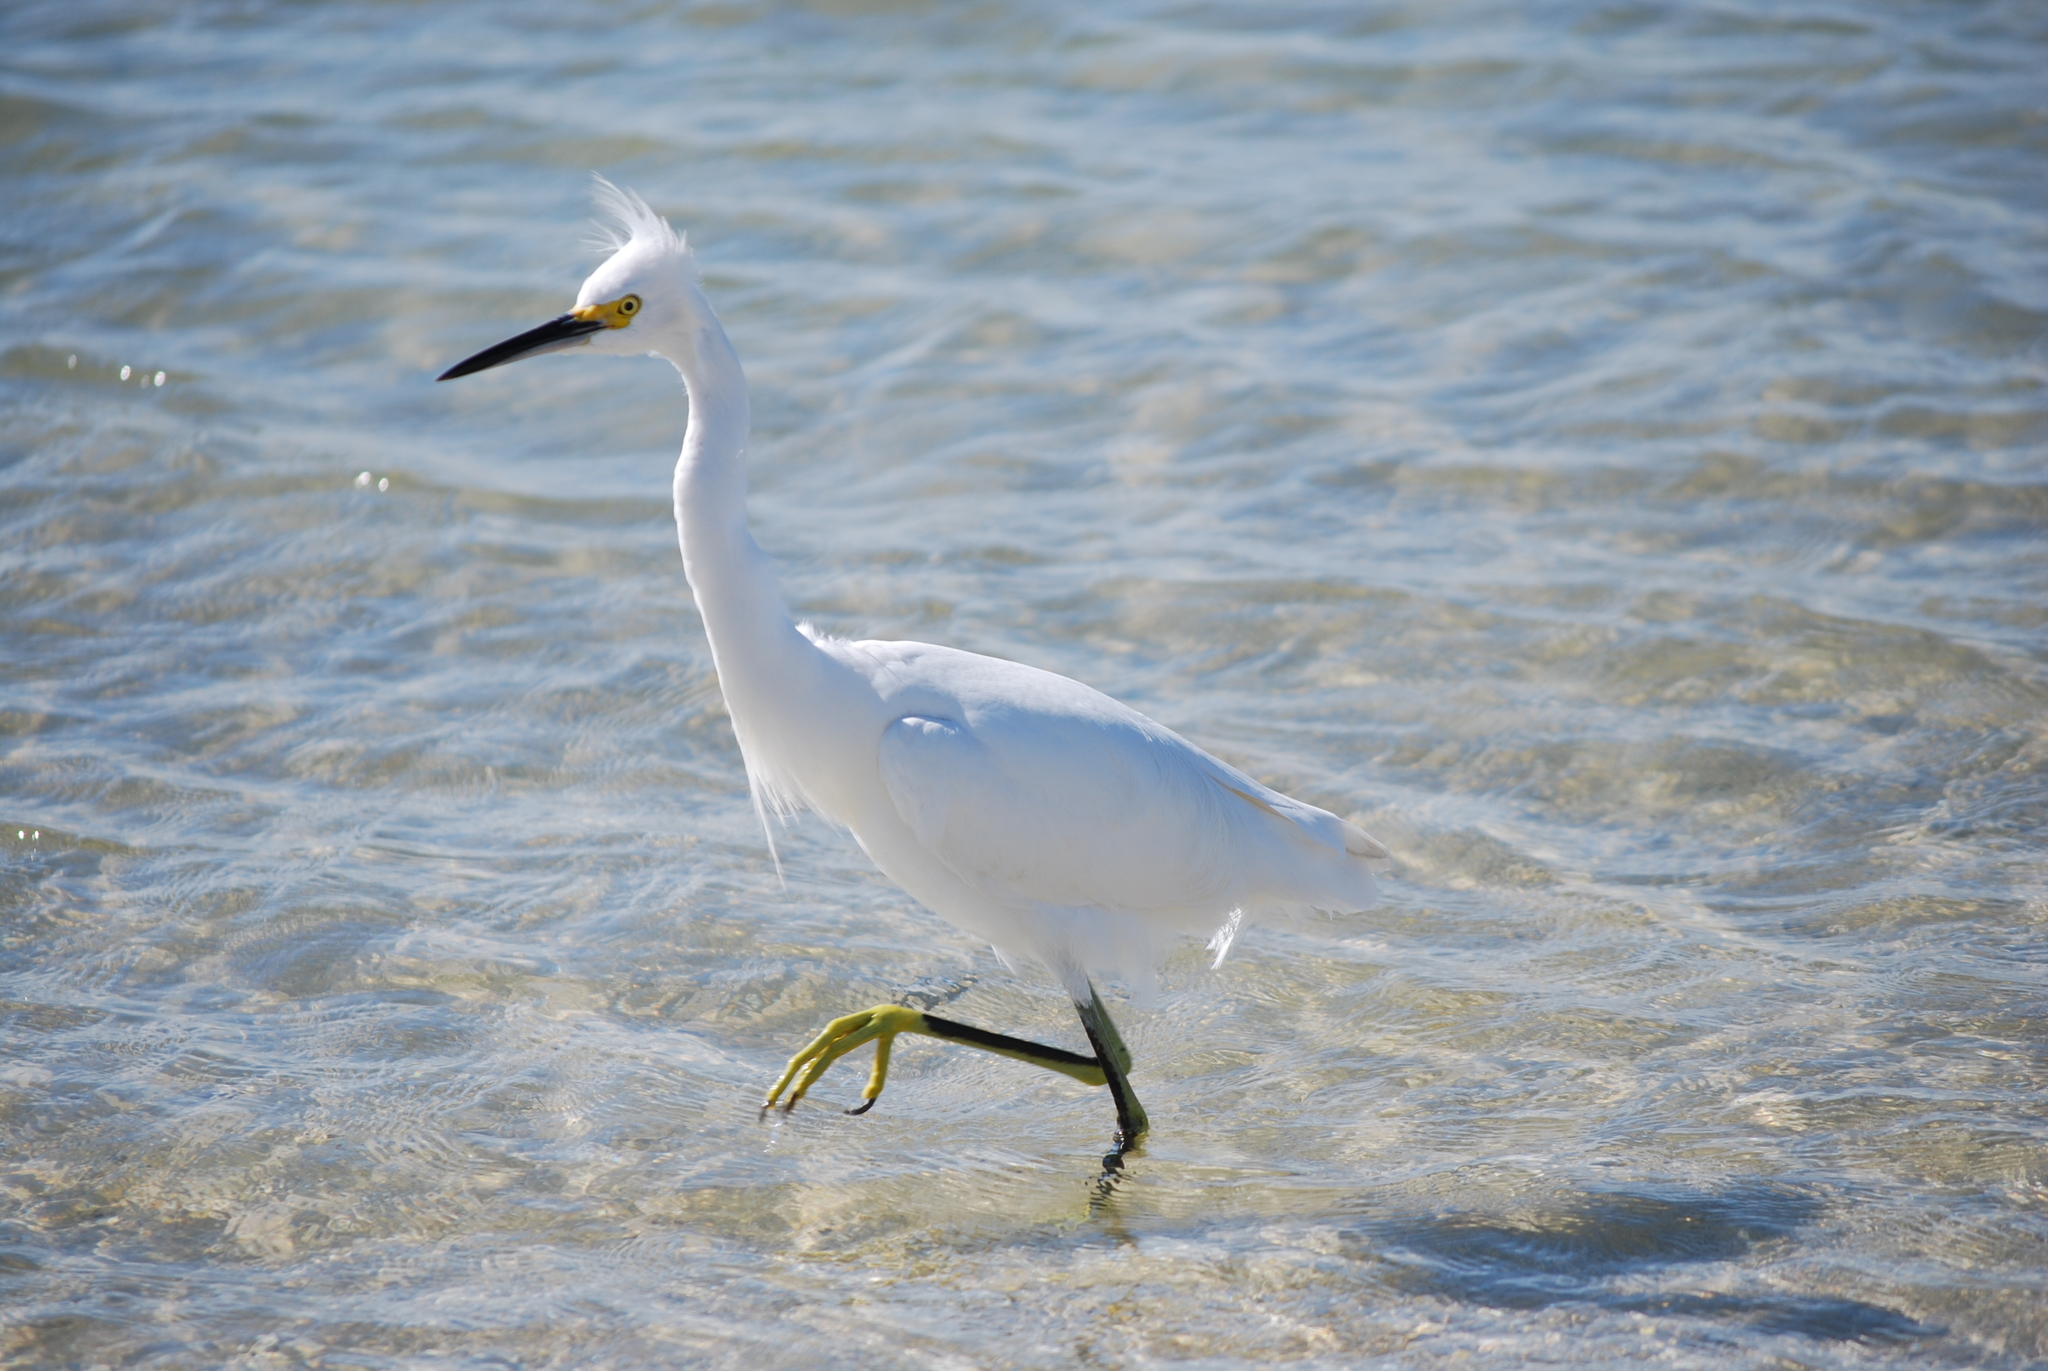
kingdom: Animalia
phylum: Chordata
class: Aves
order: Pelecaniformes
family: Ardeidae
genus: Egretta
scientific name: Egretta thula
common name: Snowy egret
